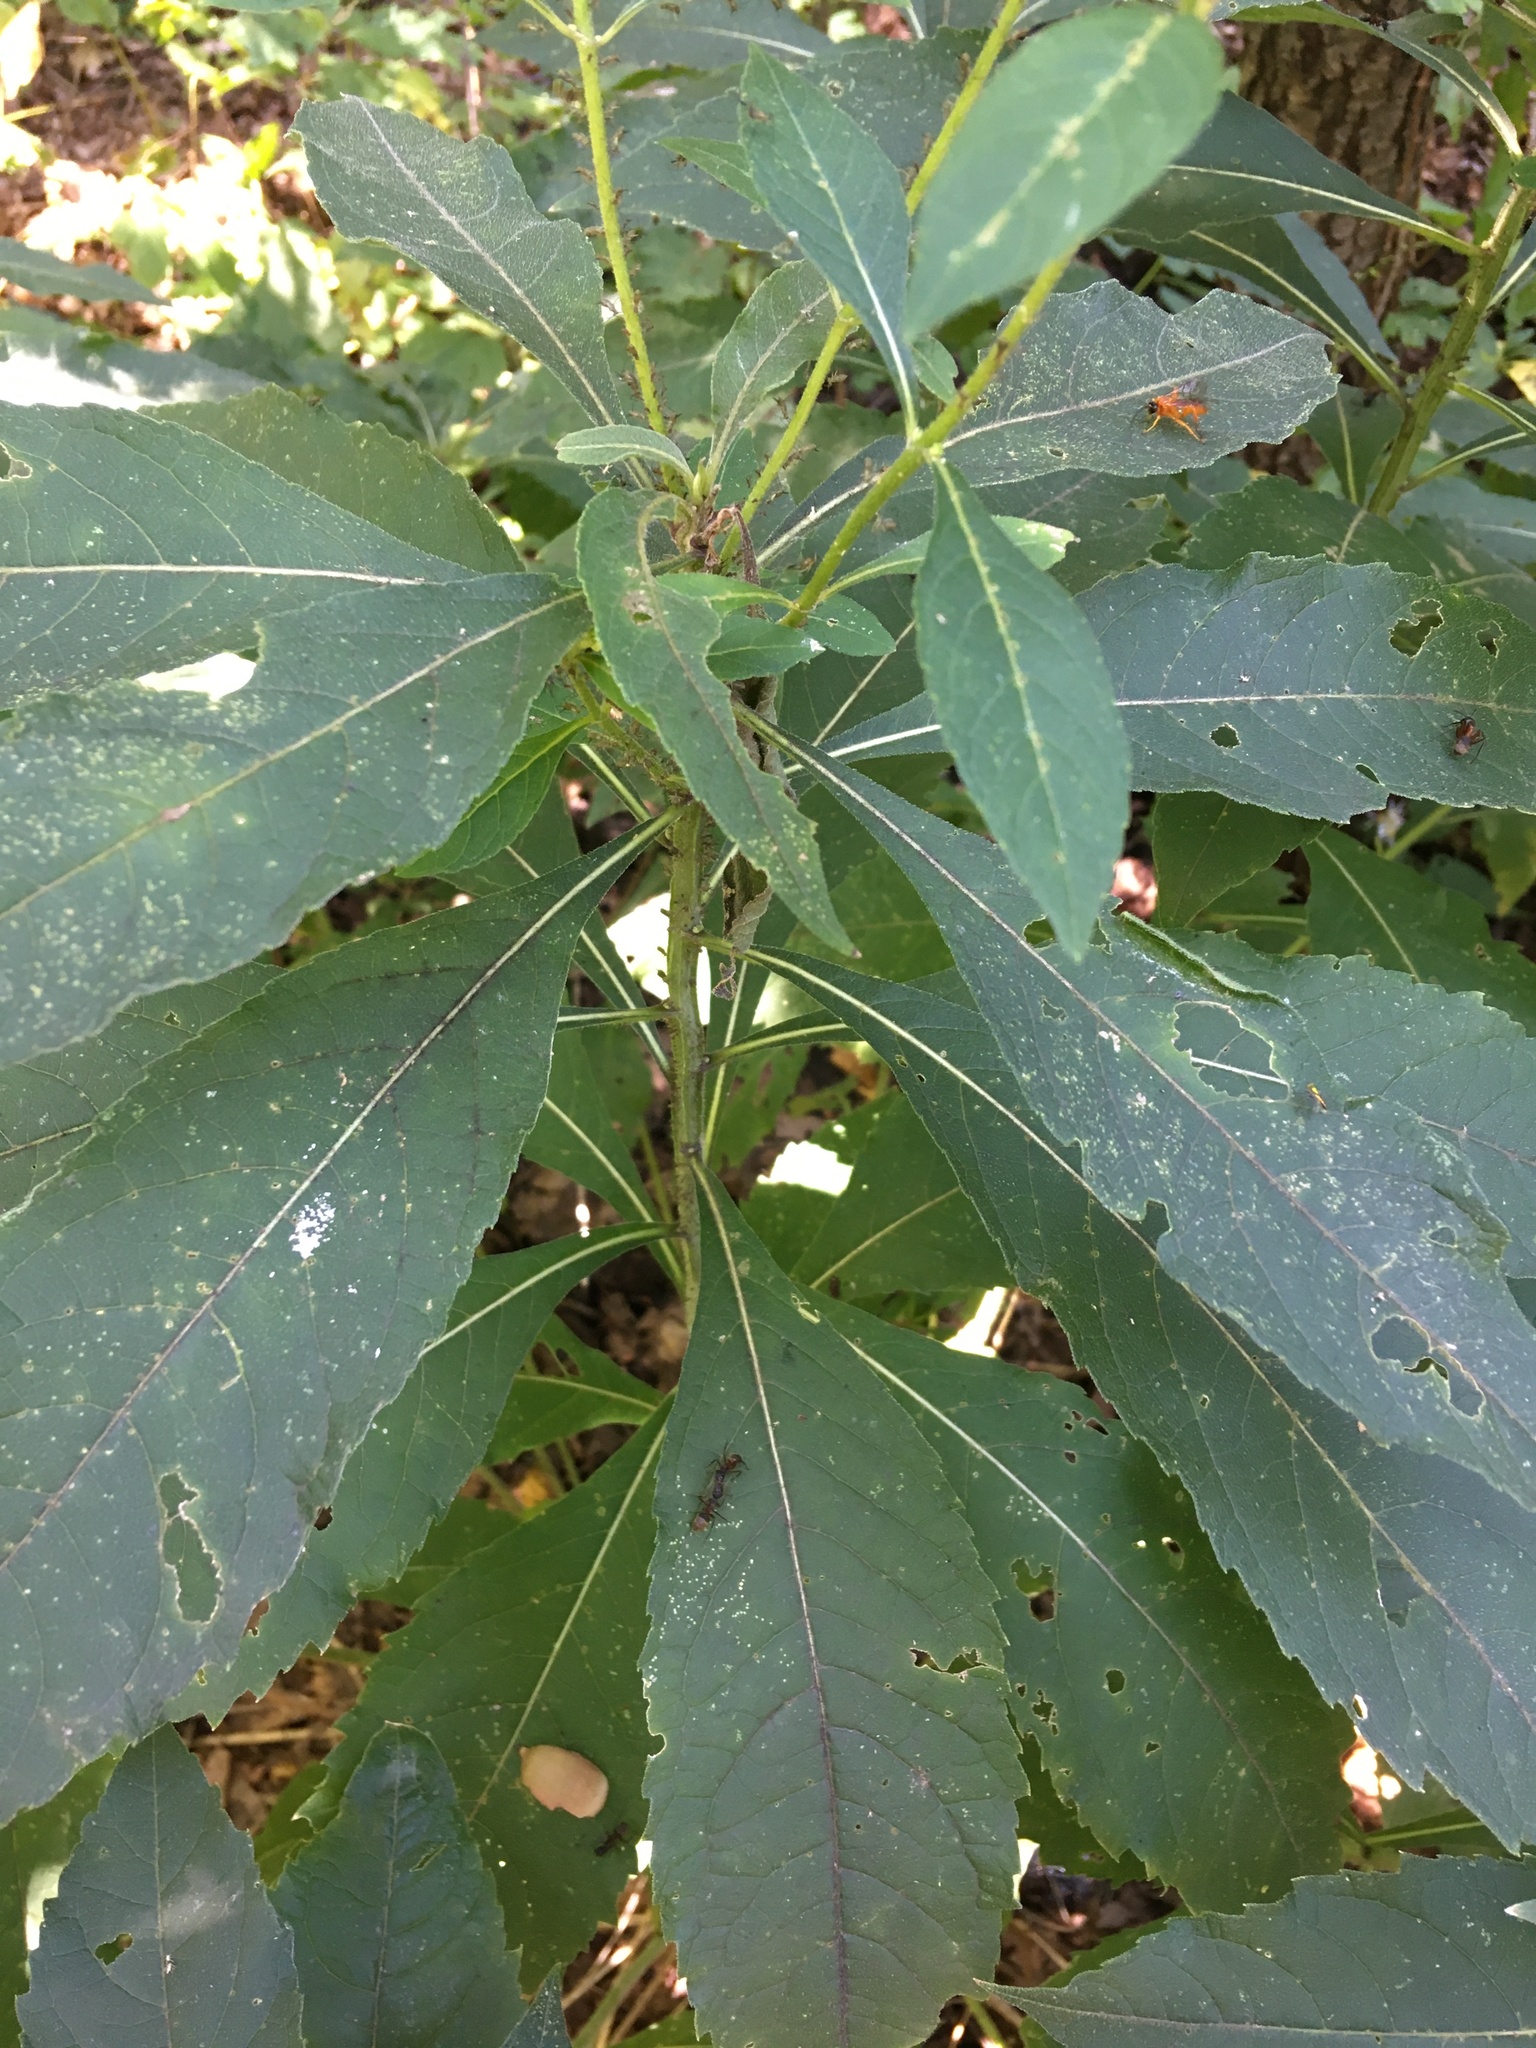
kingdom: Plantae
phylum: Tracheophyta
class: Magnoliopsida
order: Asterales
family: Asteraceae
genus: Verbesina
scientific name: Verbesina alternifolia
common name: Wingstem
